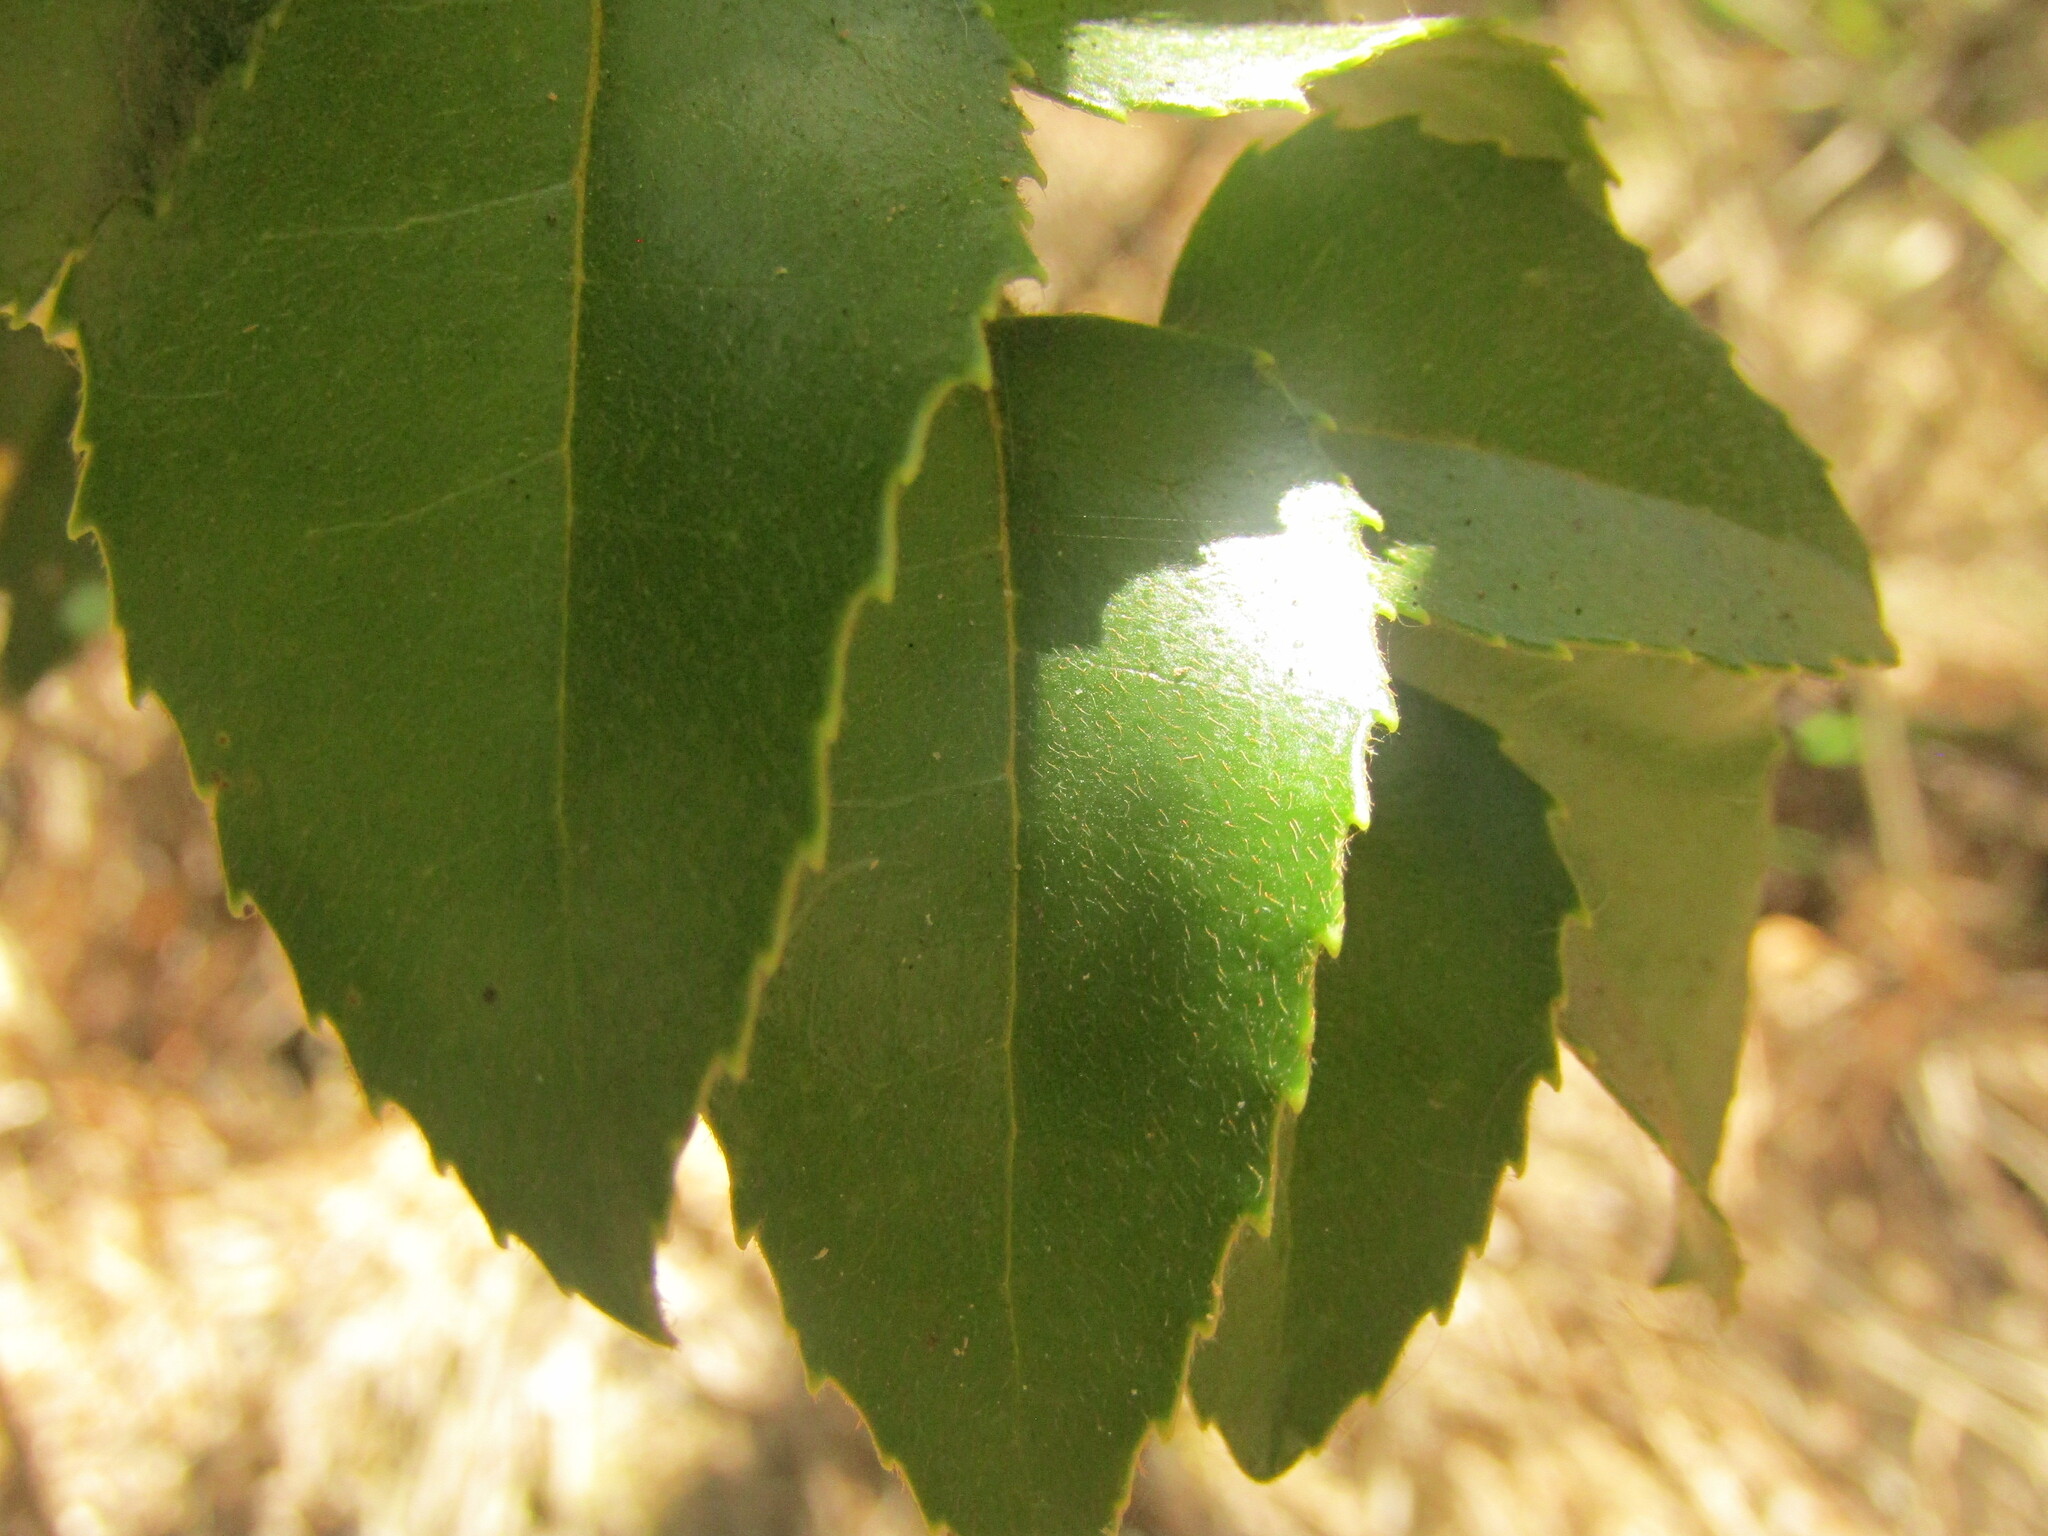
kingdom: Plantae
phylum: Tracheophyta
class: Magnoliopsida
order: Proteales
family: Proteaceae
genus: Gevuina
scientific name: Gevuina avellana
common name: Chilean hazel
